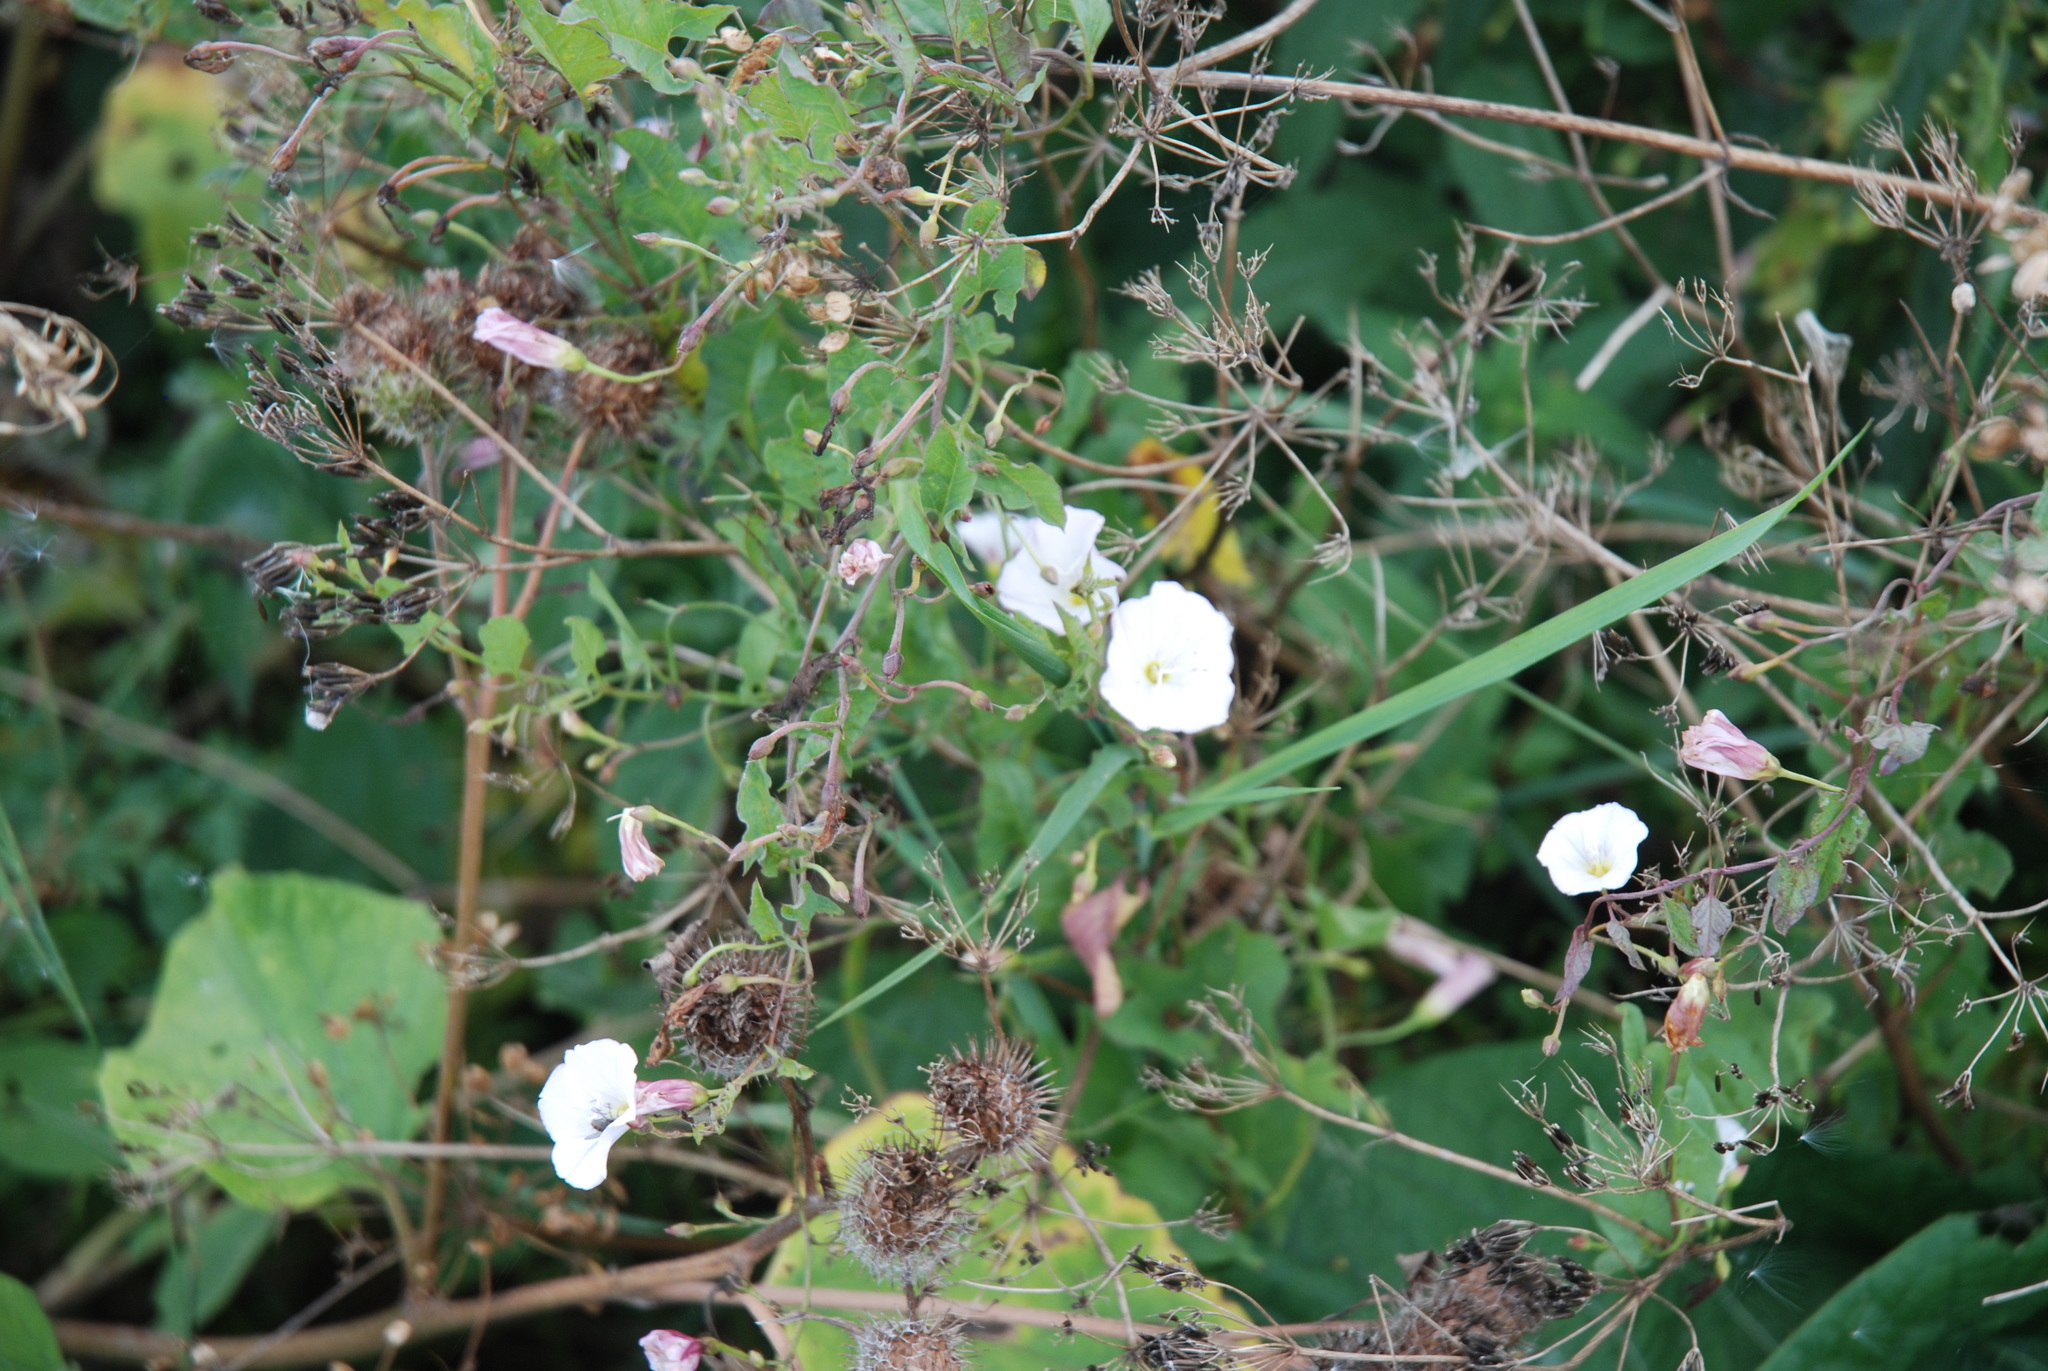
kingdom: Plantae
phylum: Tracheophyta
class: Magnoliopsida
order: Solanales
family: Convolvulaceae
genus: Convolvulus
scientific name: Convolvulus arvensis
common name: Field bindweed
